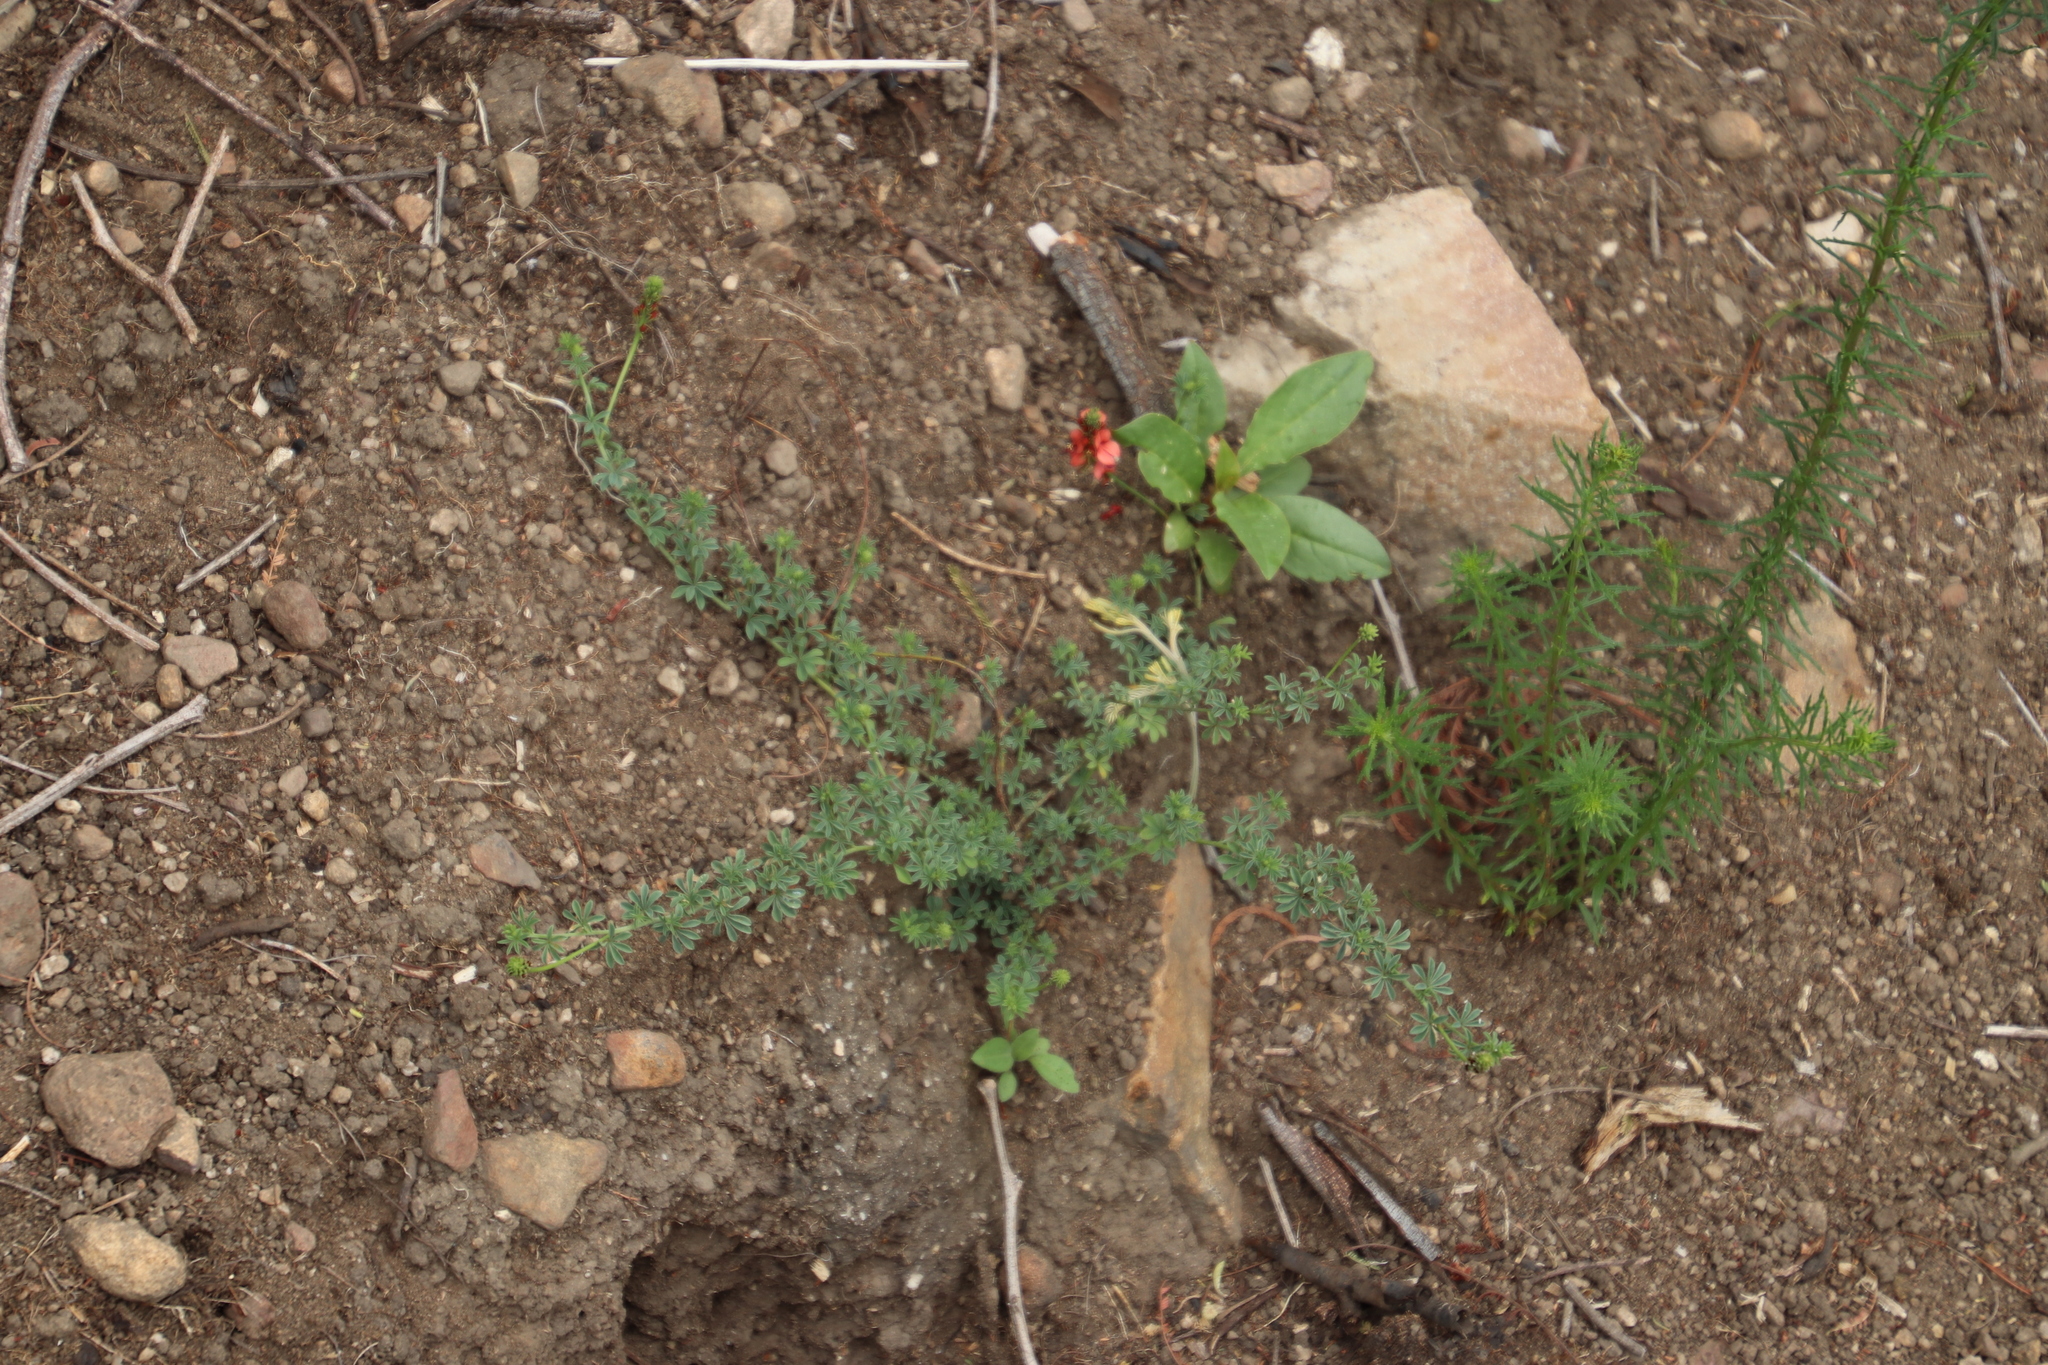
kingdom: Plantae
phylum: Tracheophyta
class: Magnoliopsida
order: Fabales
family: Fabaceae
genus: Indigofera
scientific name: Indigofera digitata
